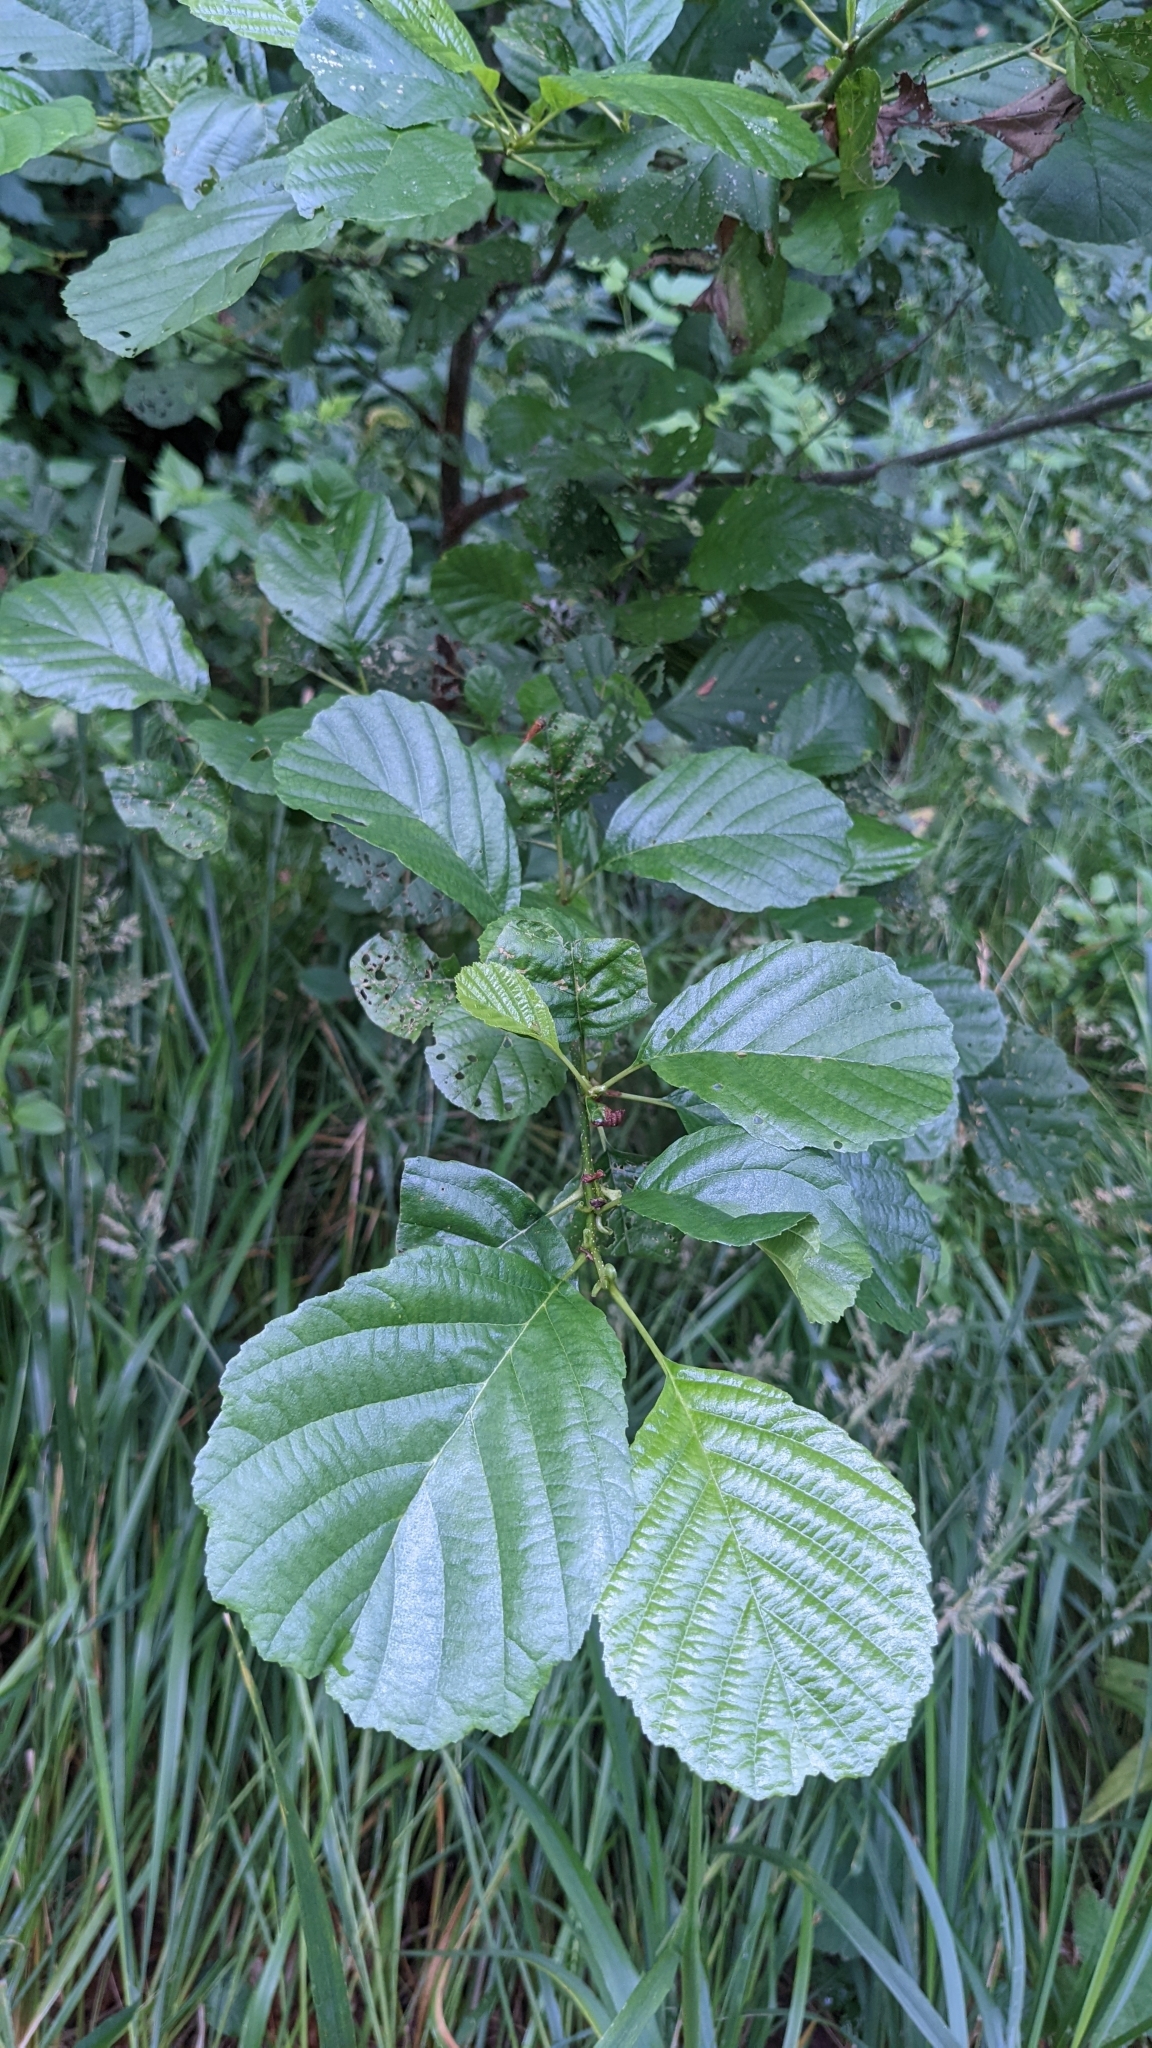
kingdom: Plantae
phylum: Tracheophyta
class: Magnoliopsida
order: Fagales
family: Betulaceae
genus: Alnus
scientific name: Alnus glutinosa
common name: Black alder
